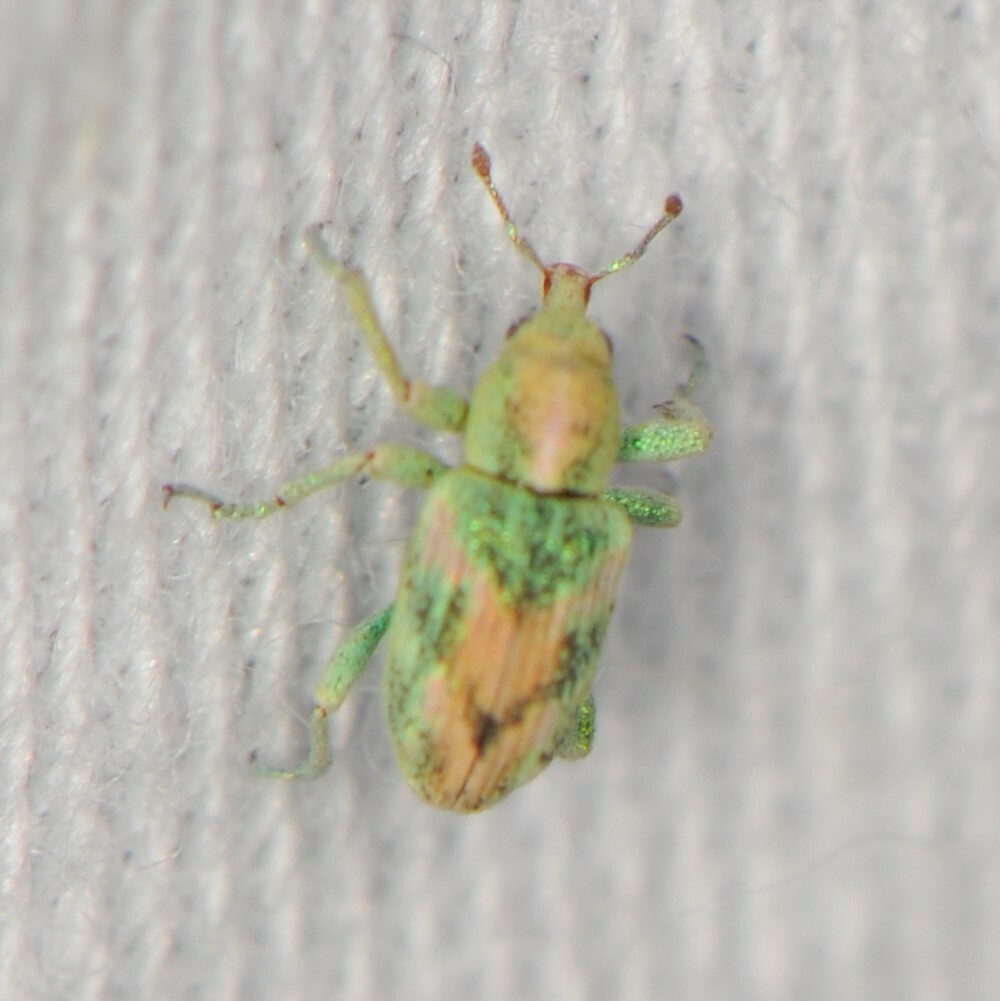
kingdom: Animalia
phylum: Arthropoda
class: Insecta
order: Coleoptera
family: Curculionidae
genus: Coniatus
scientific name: Coniatus splendidulus
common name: Splendid tamarisk weevil
